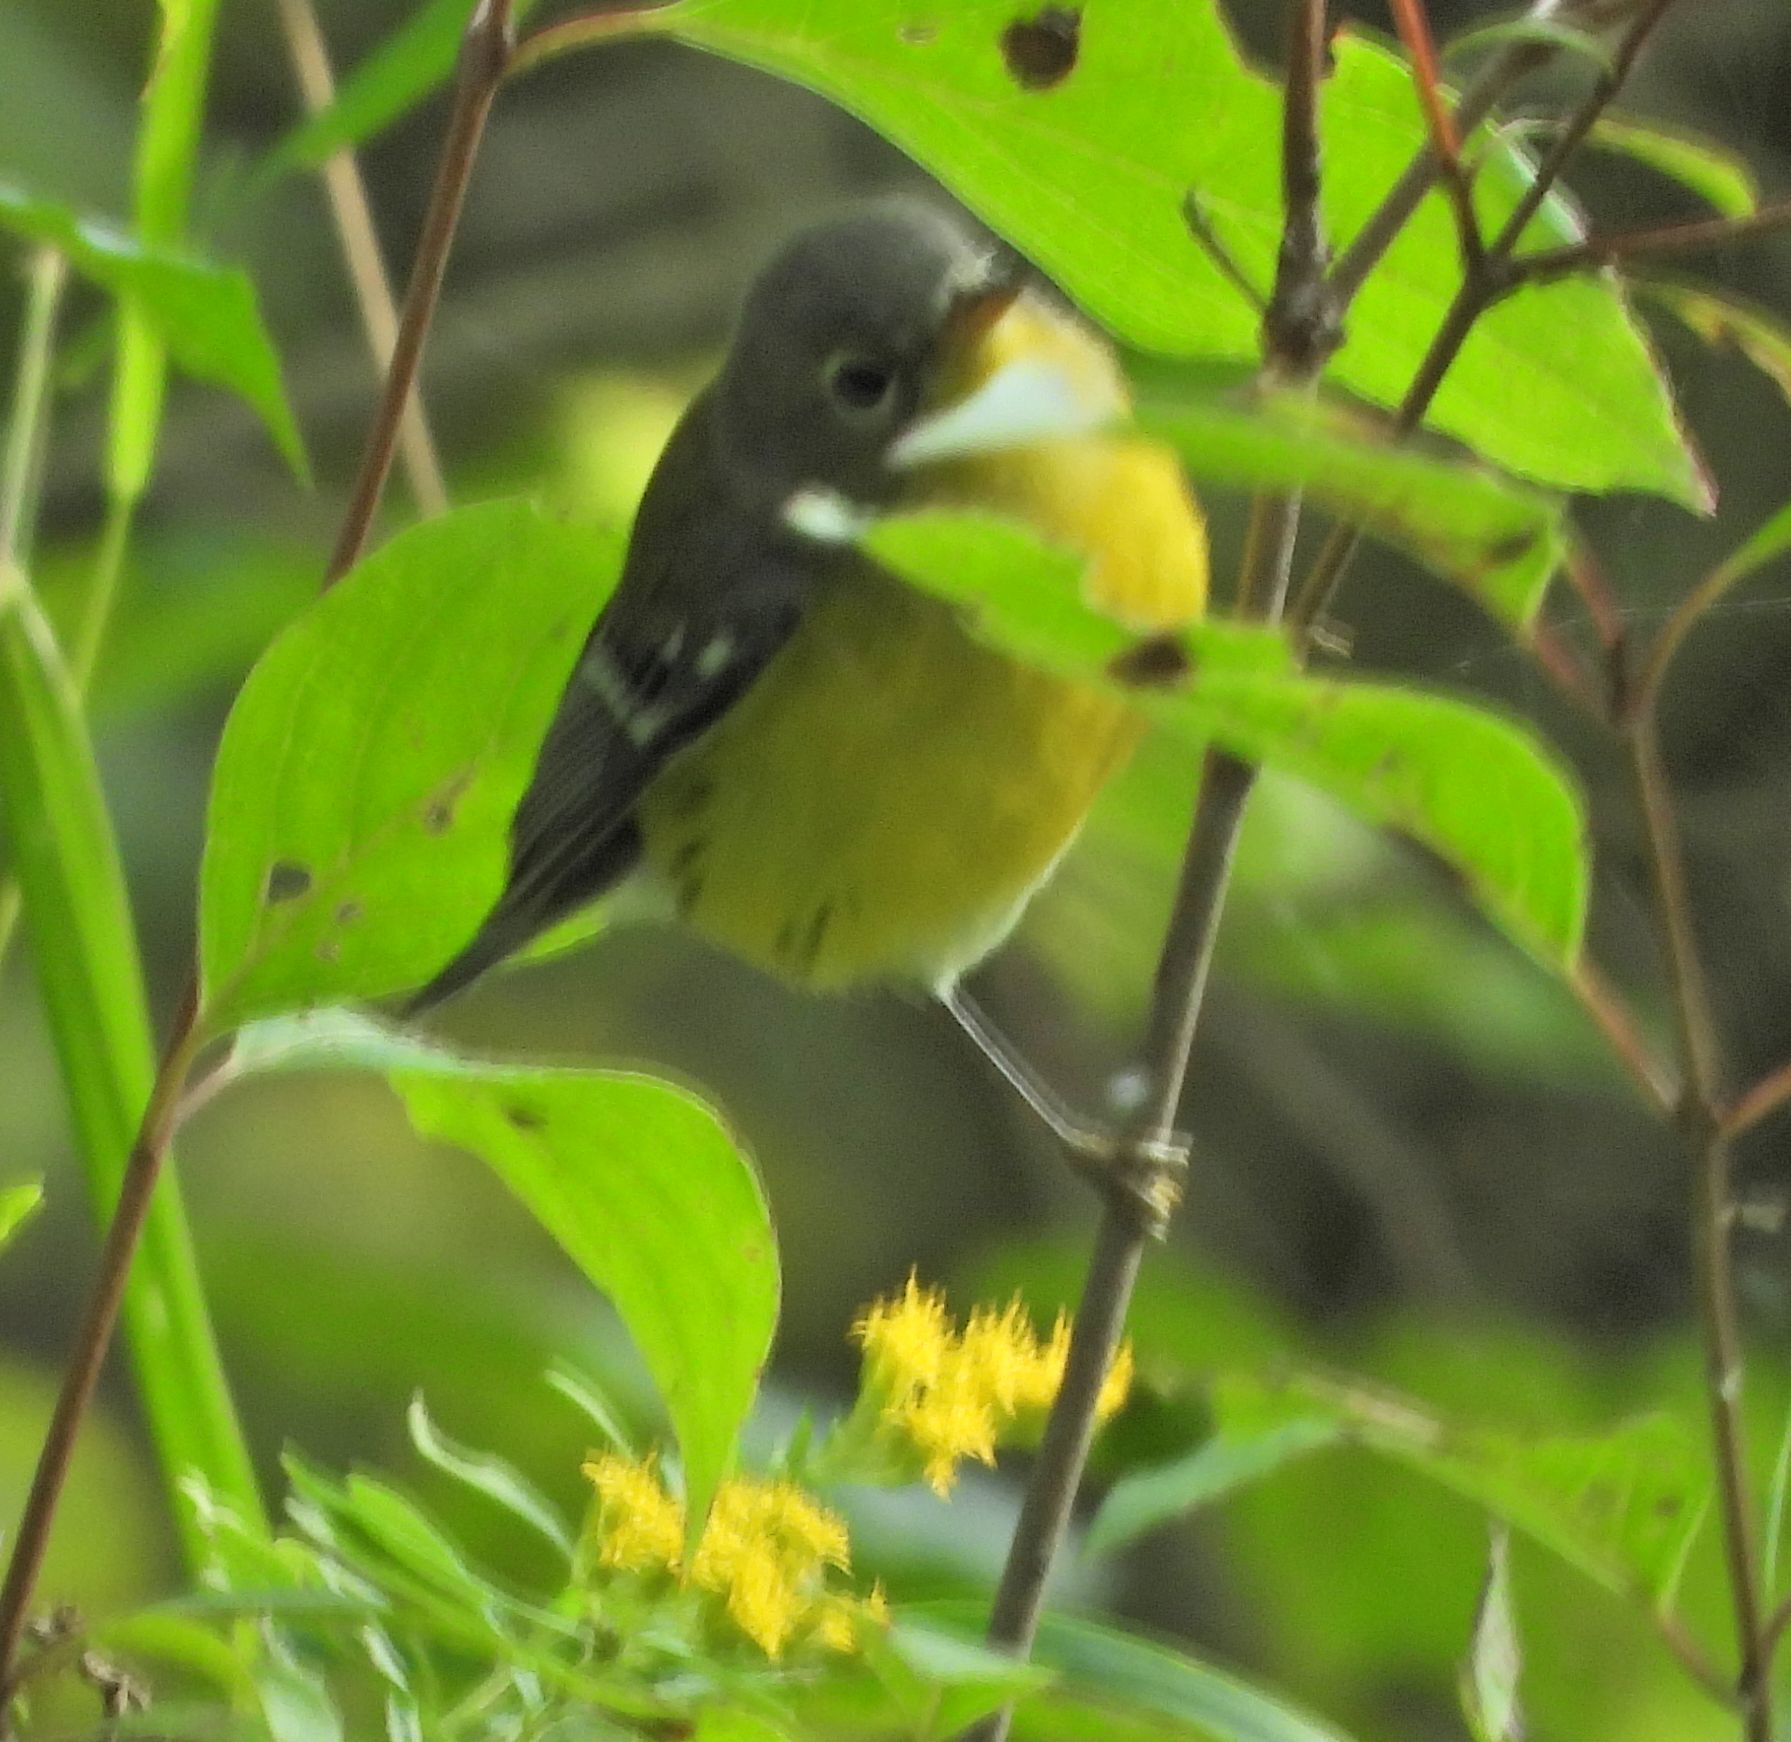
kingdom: Animalia
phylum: Chordata
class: Aves
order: Passeriformes
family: Parulidae
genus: Setophaga
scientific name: Setophaga magnolia
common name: Magnolia warbler
